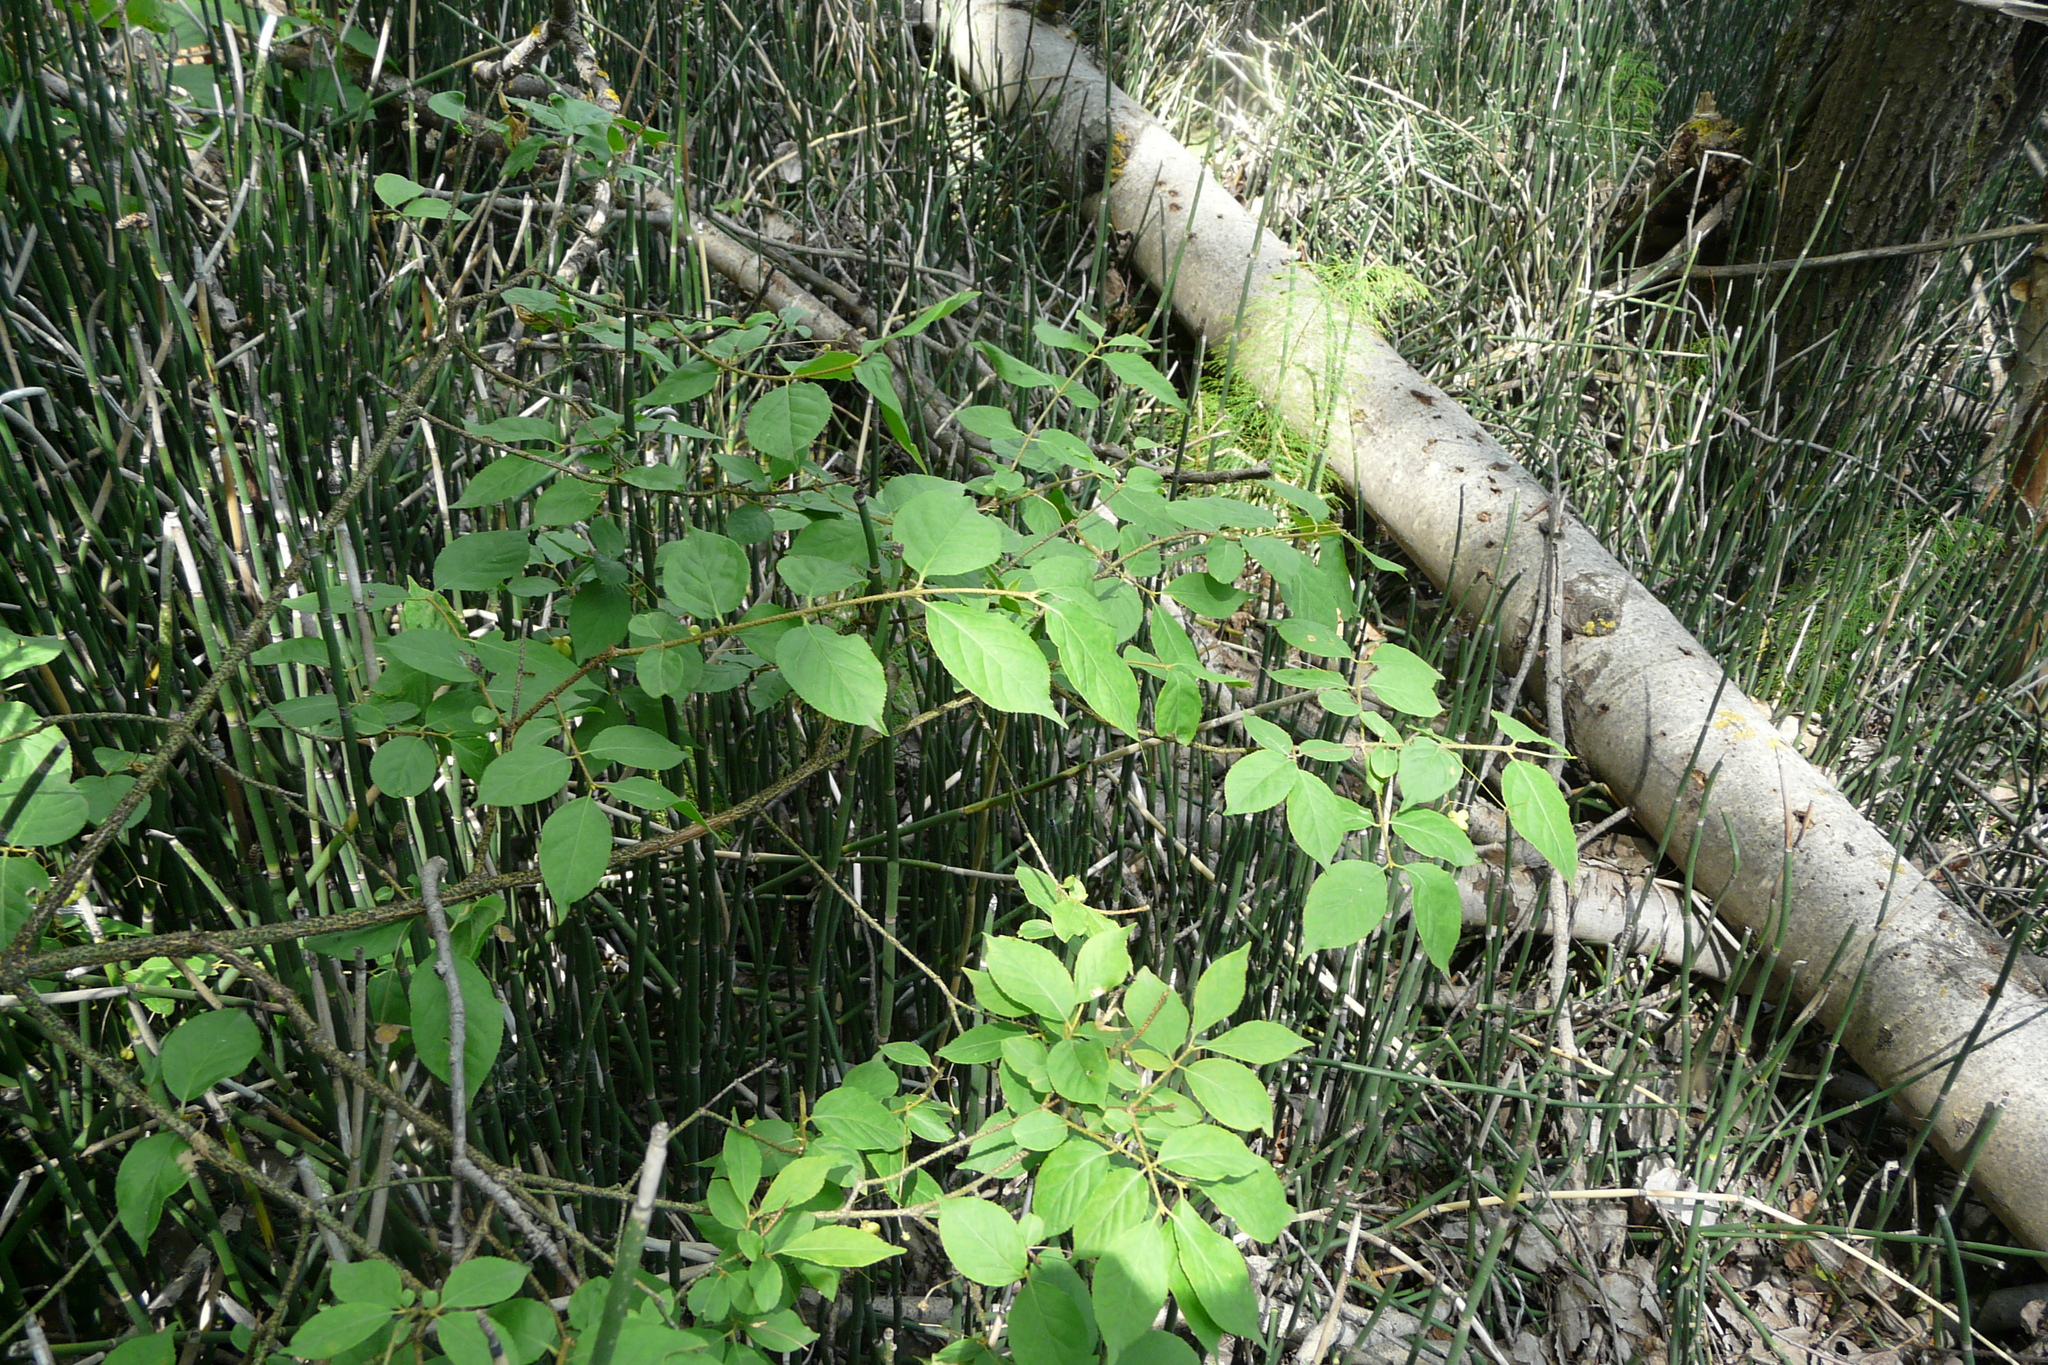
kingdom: Plantae
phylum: Tracheophyta
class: Magnoliopsida
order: Celastrales
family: Celastraceae
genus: Euonymus
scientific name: Euonymus verrucosus
